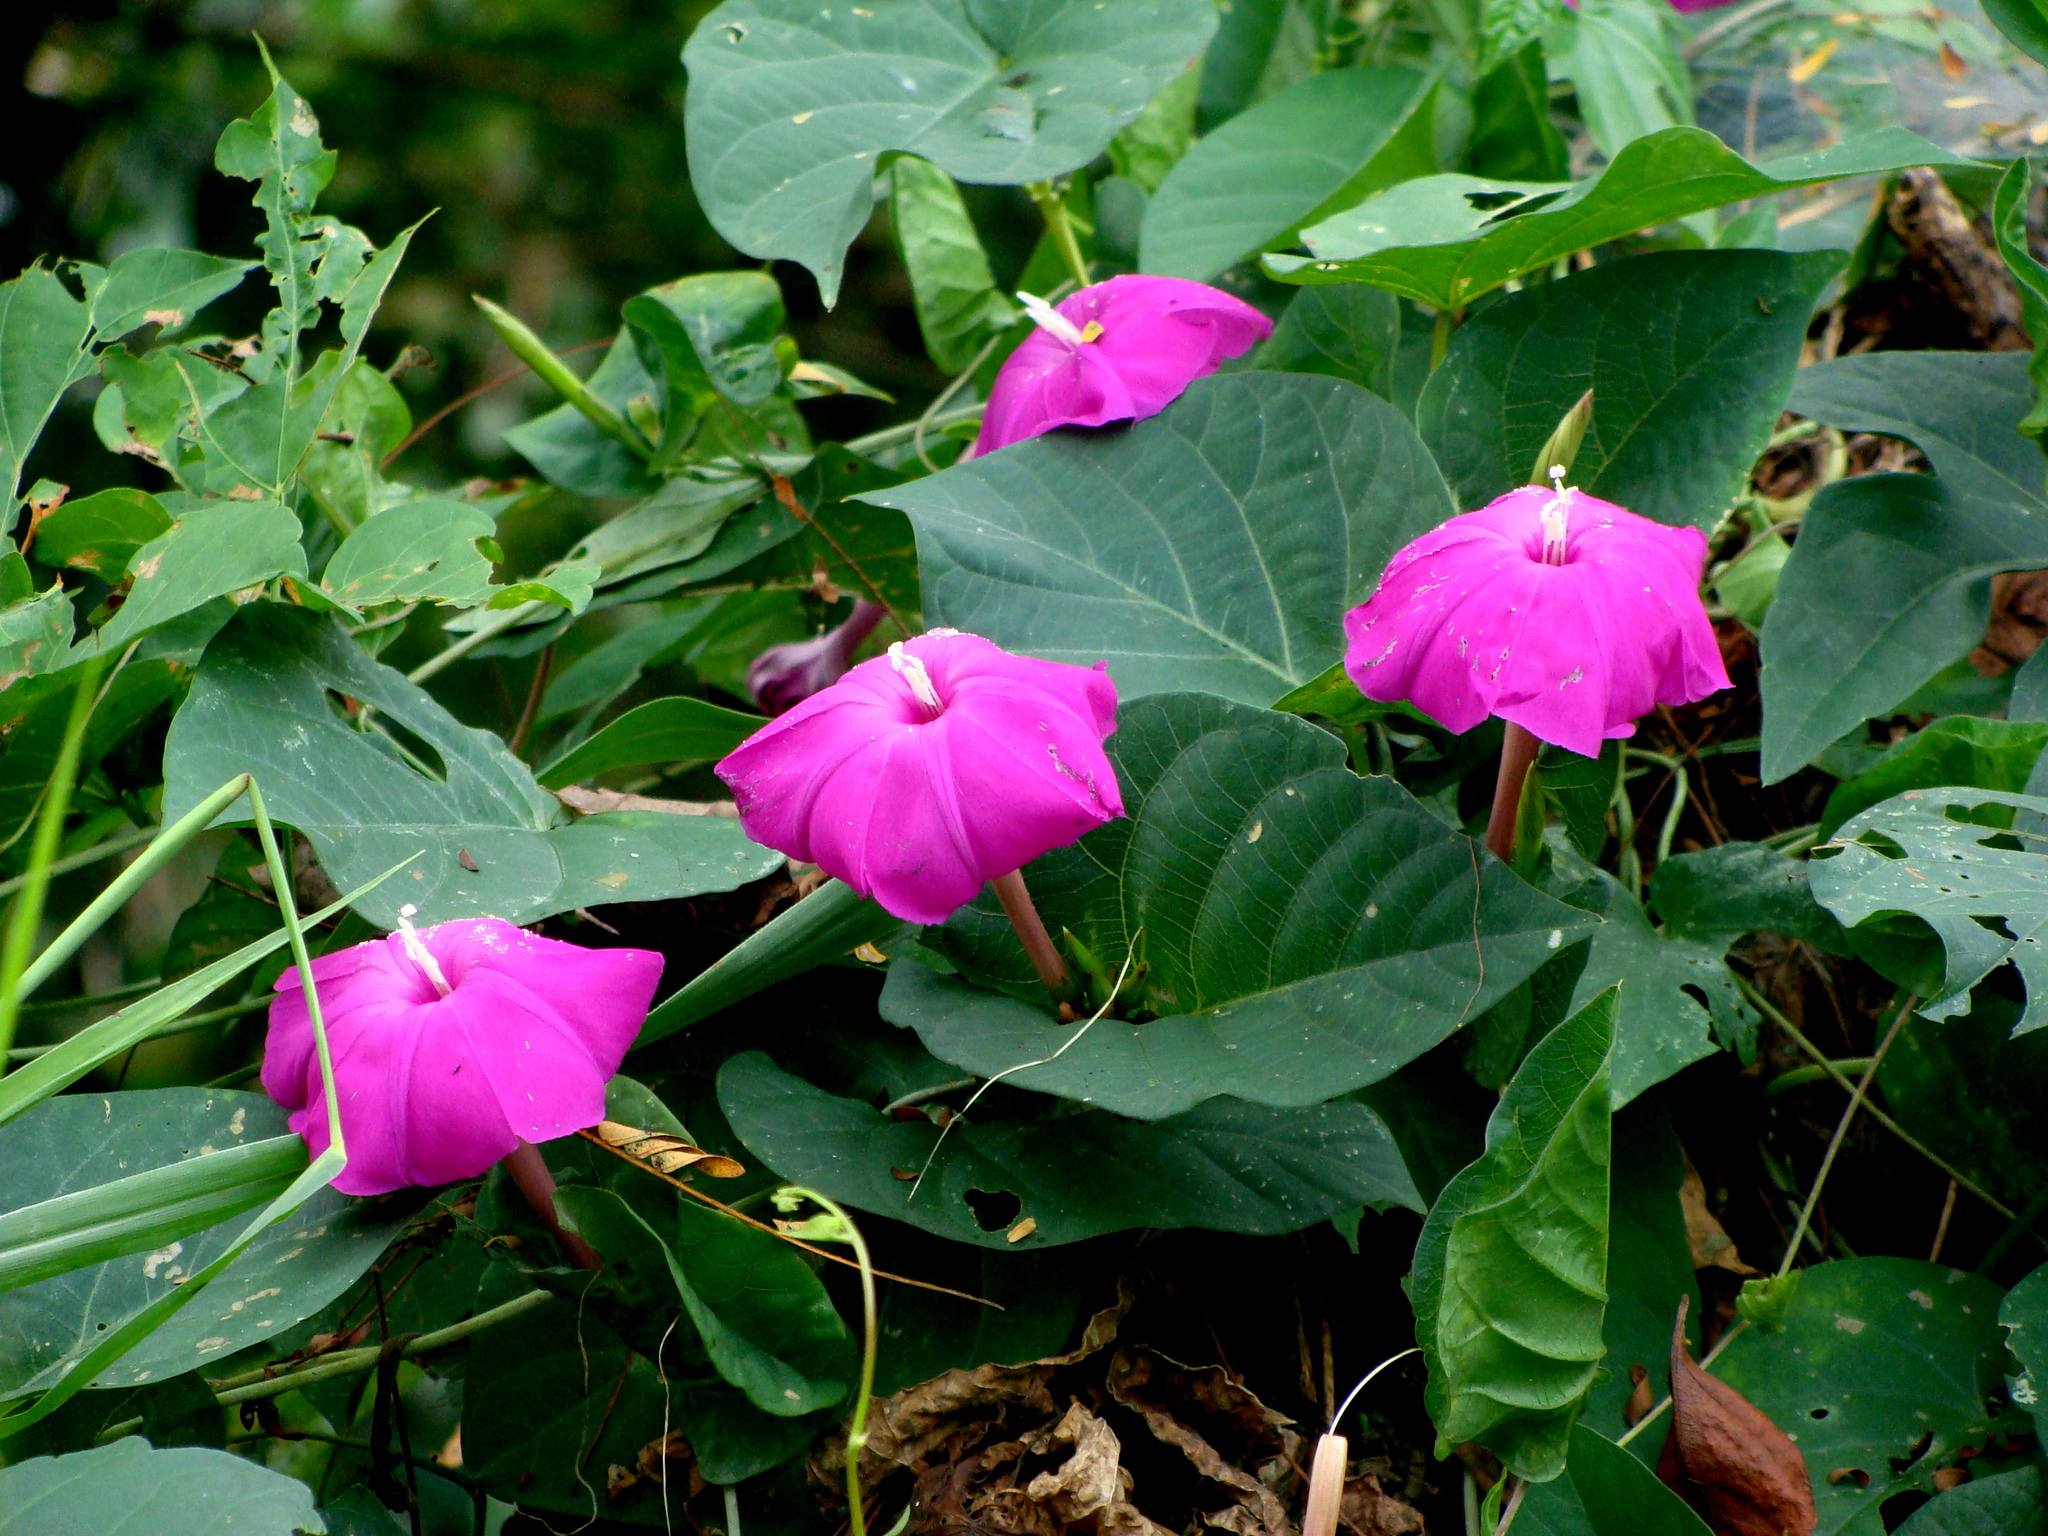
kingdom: Plantae
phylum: Tracheophyta
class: Magnoliopsida
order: Solanales
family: Convolvulaceae
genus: Ipomoea
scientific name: Ipomoea dumosa
